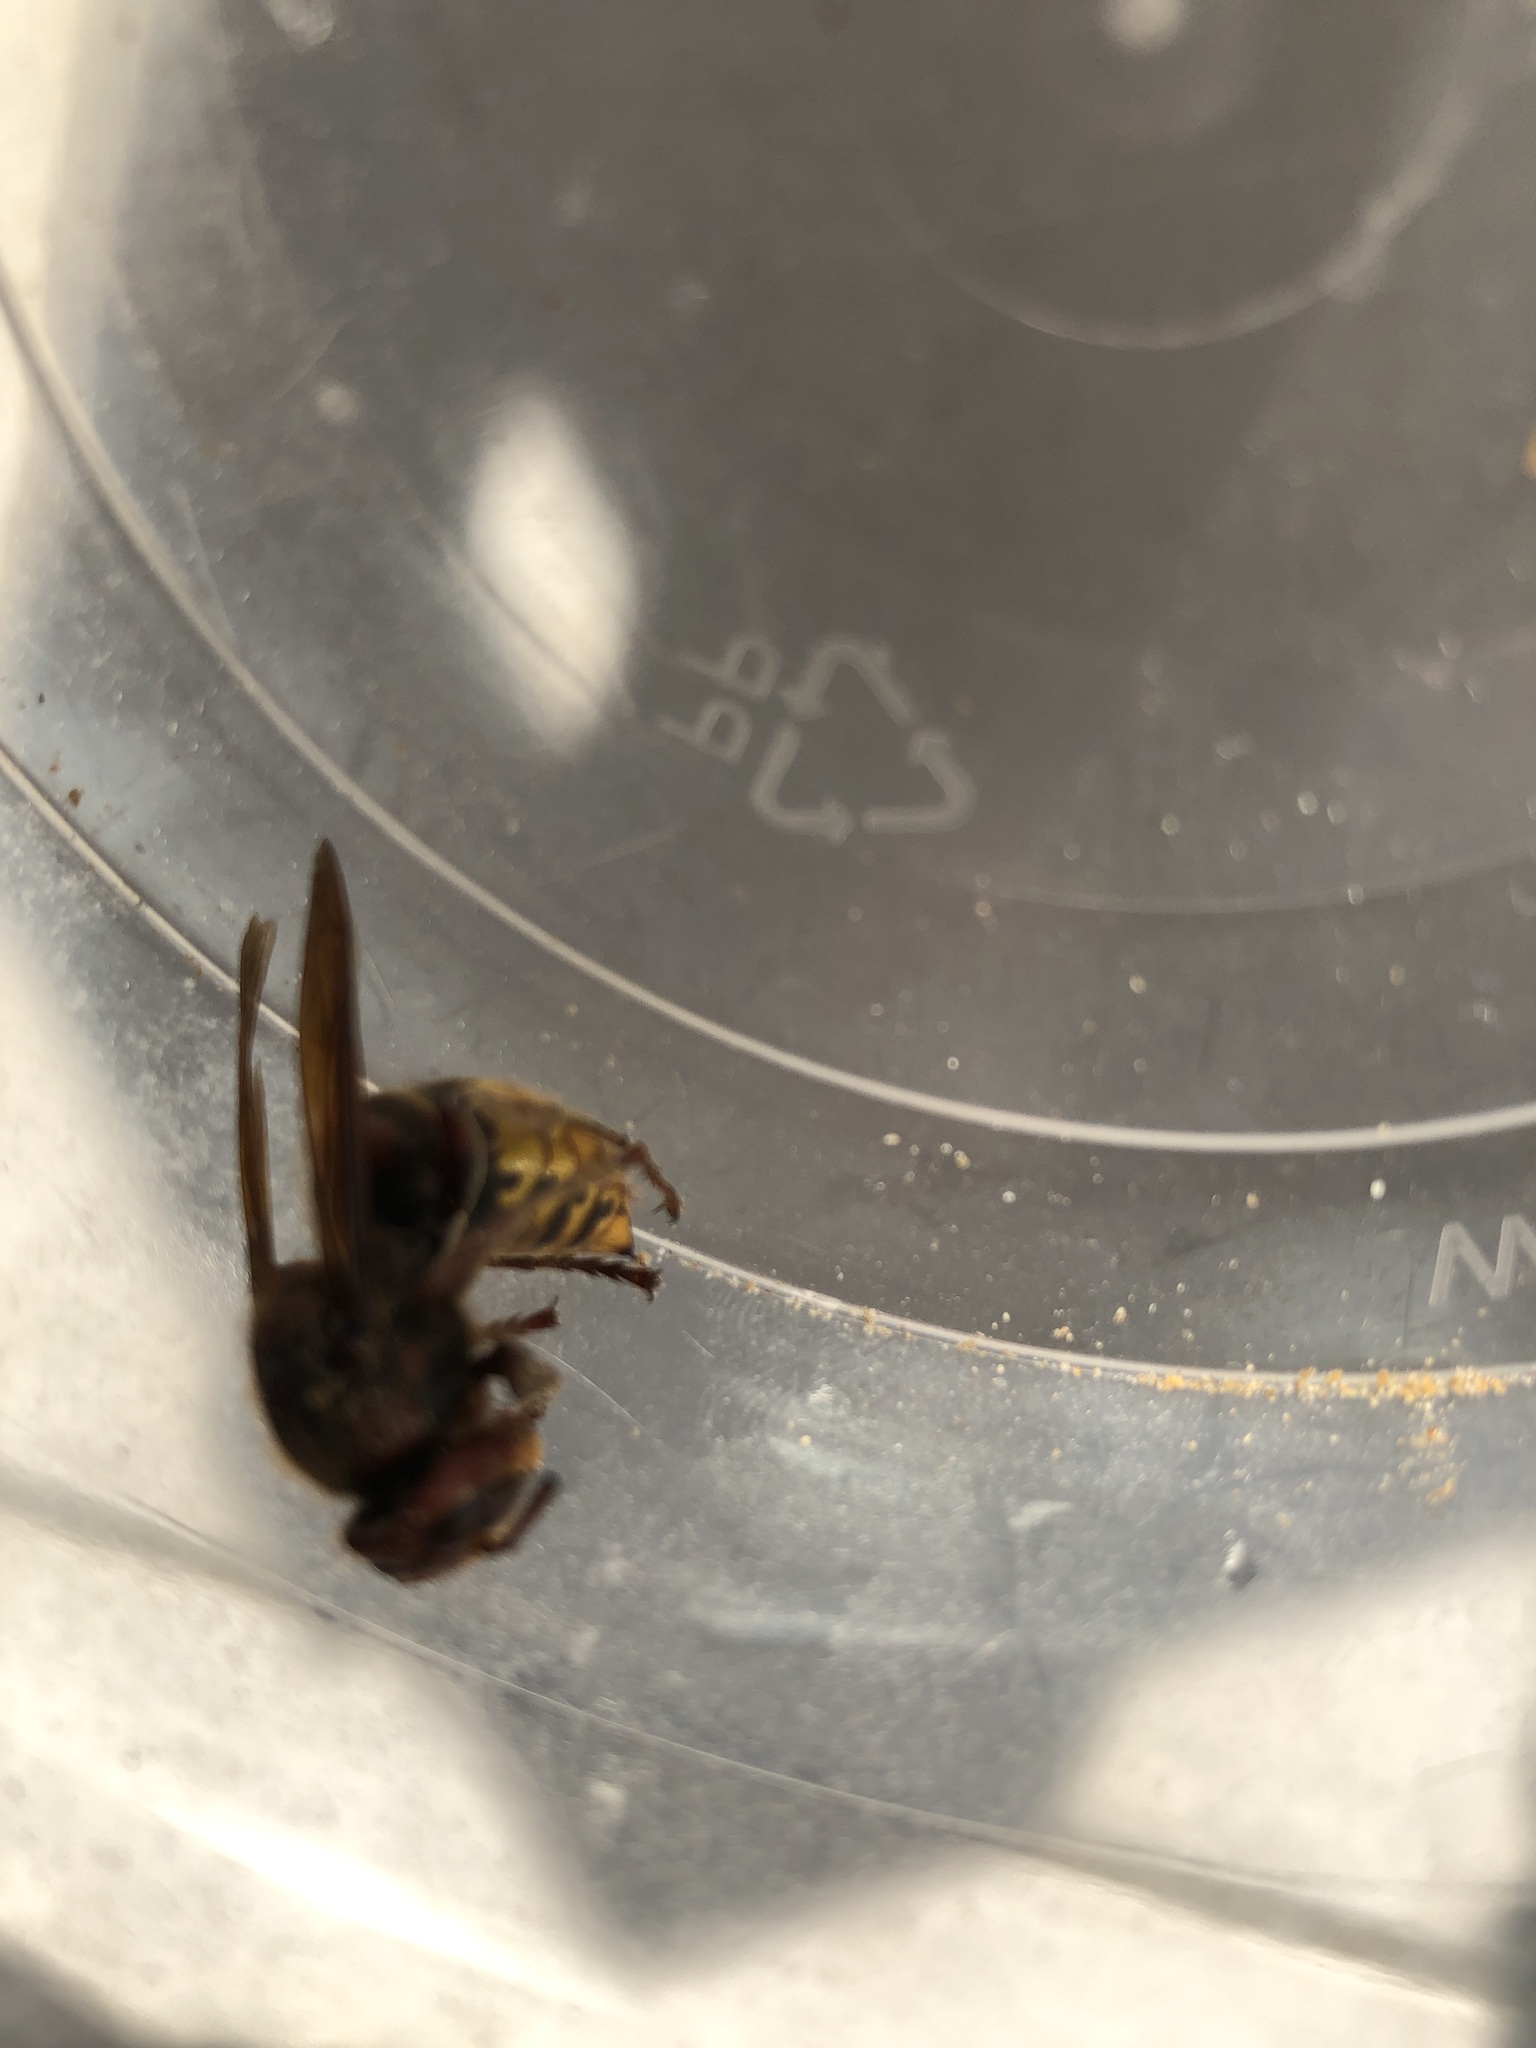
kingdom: Animalia
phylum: Arthropoda
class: Insecta
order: Hymenoptera
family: Vespidae
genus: Vespa
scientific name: Vespa crabro
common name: Hornet
